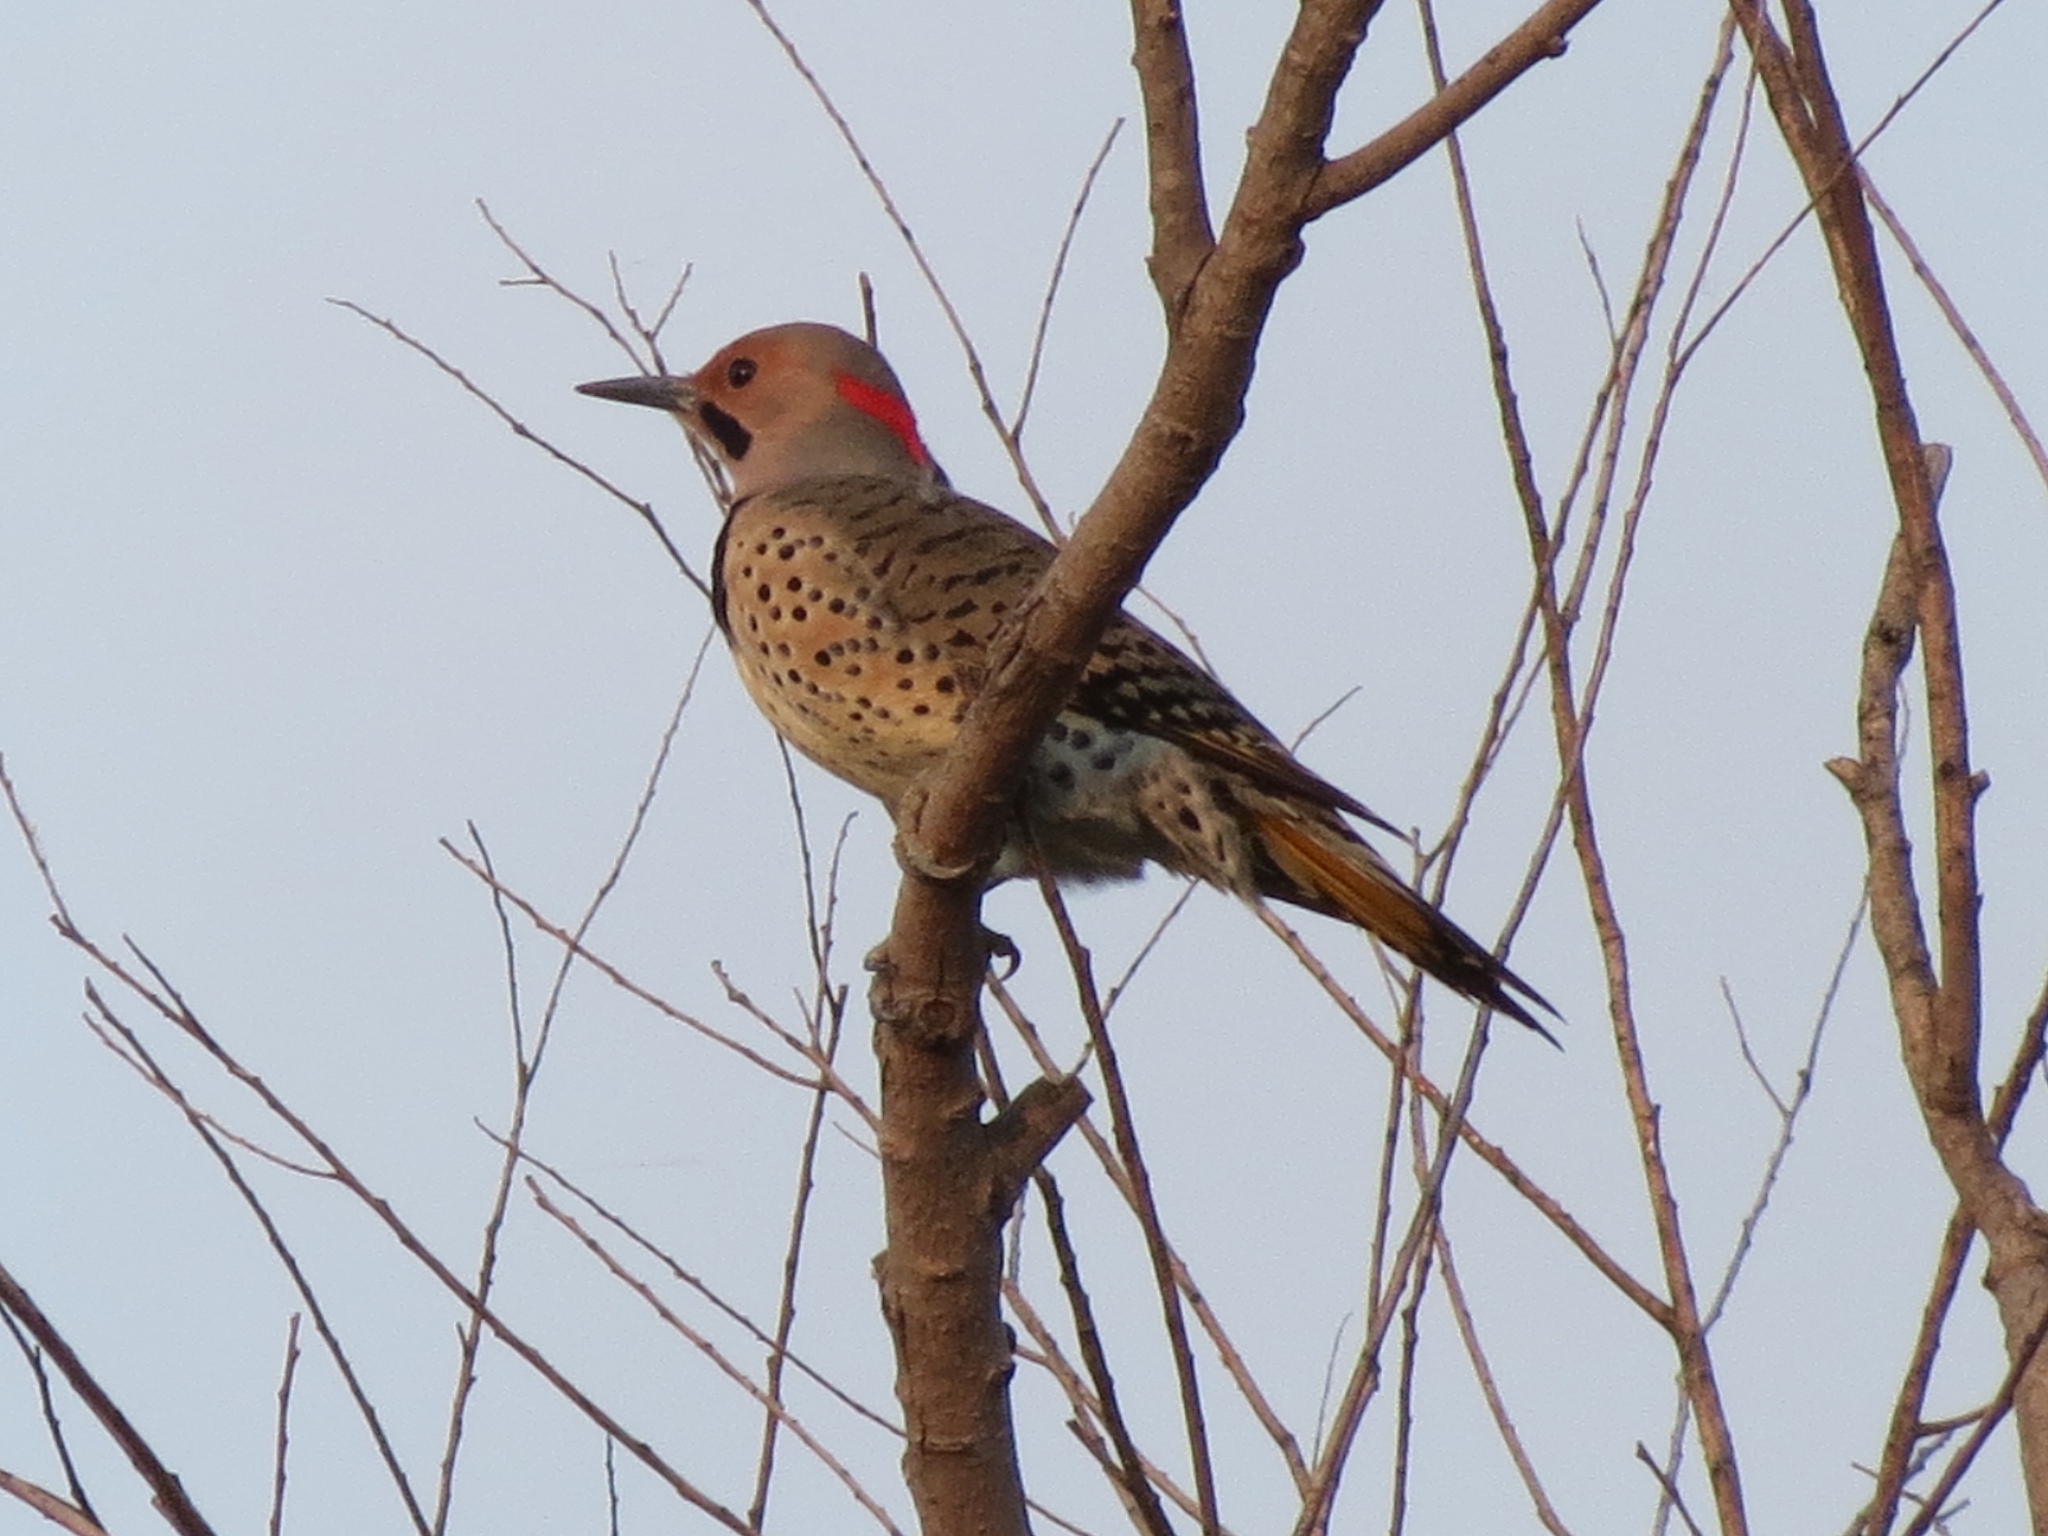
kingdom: Animalia
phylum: Chordata
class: Aves
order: Piciformes
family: Picidae
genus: Colaptes
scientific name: Colaptes auratus
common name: Northern flicker
